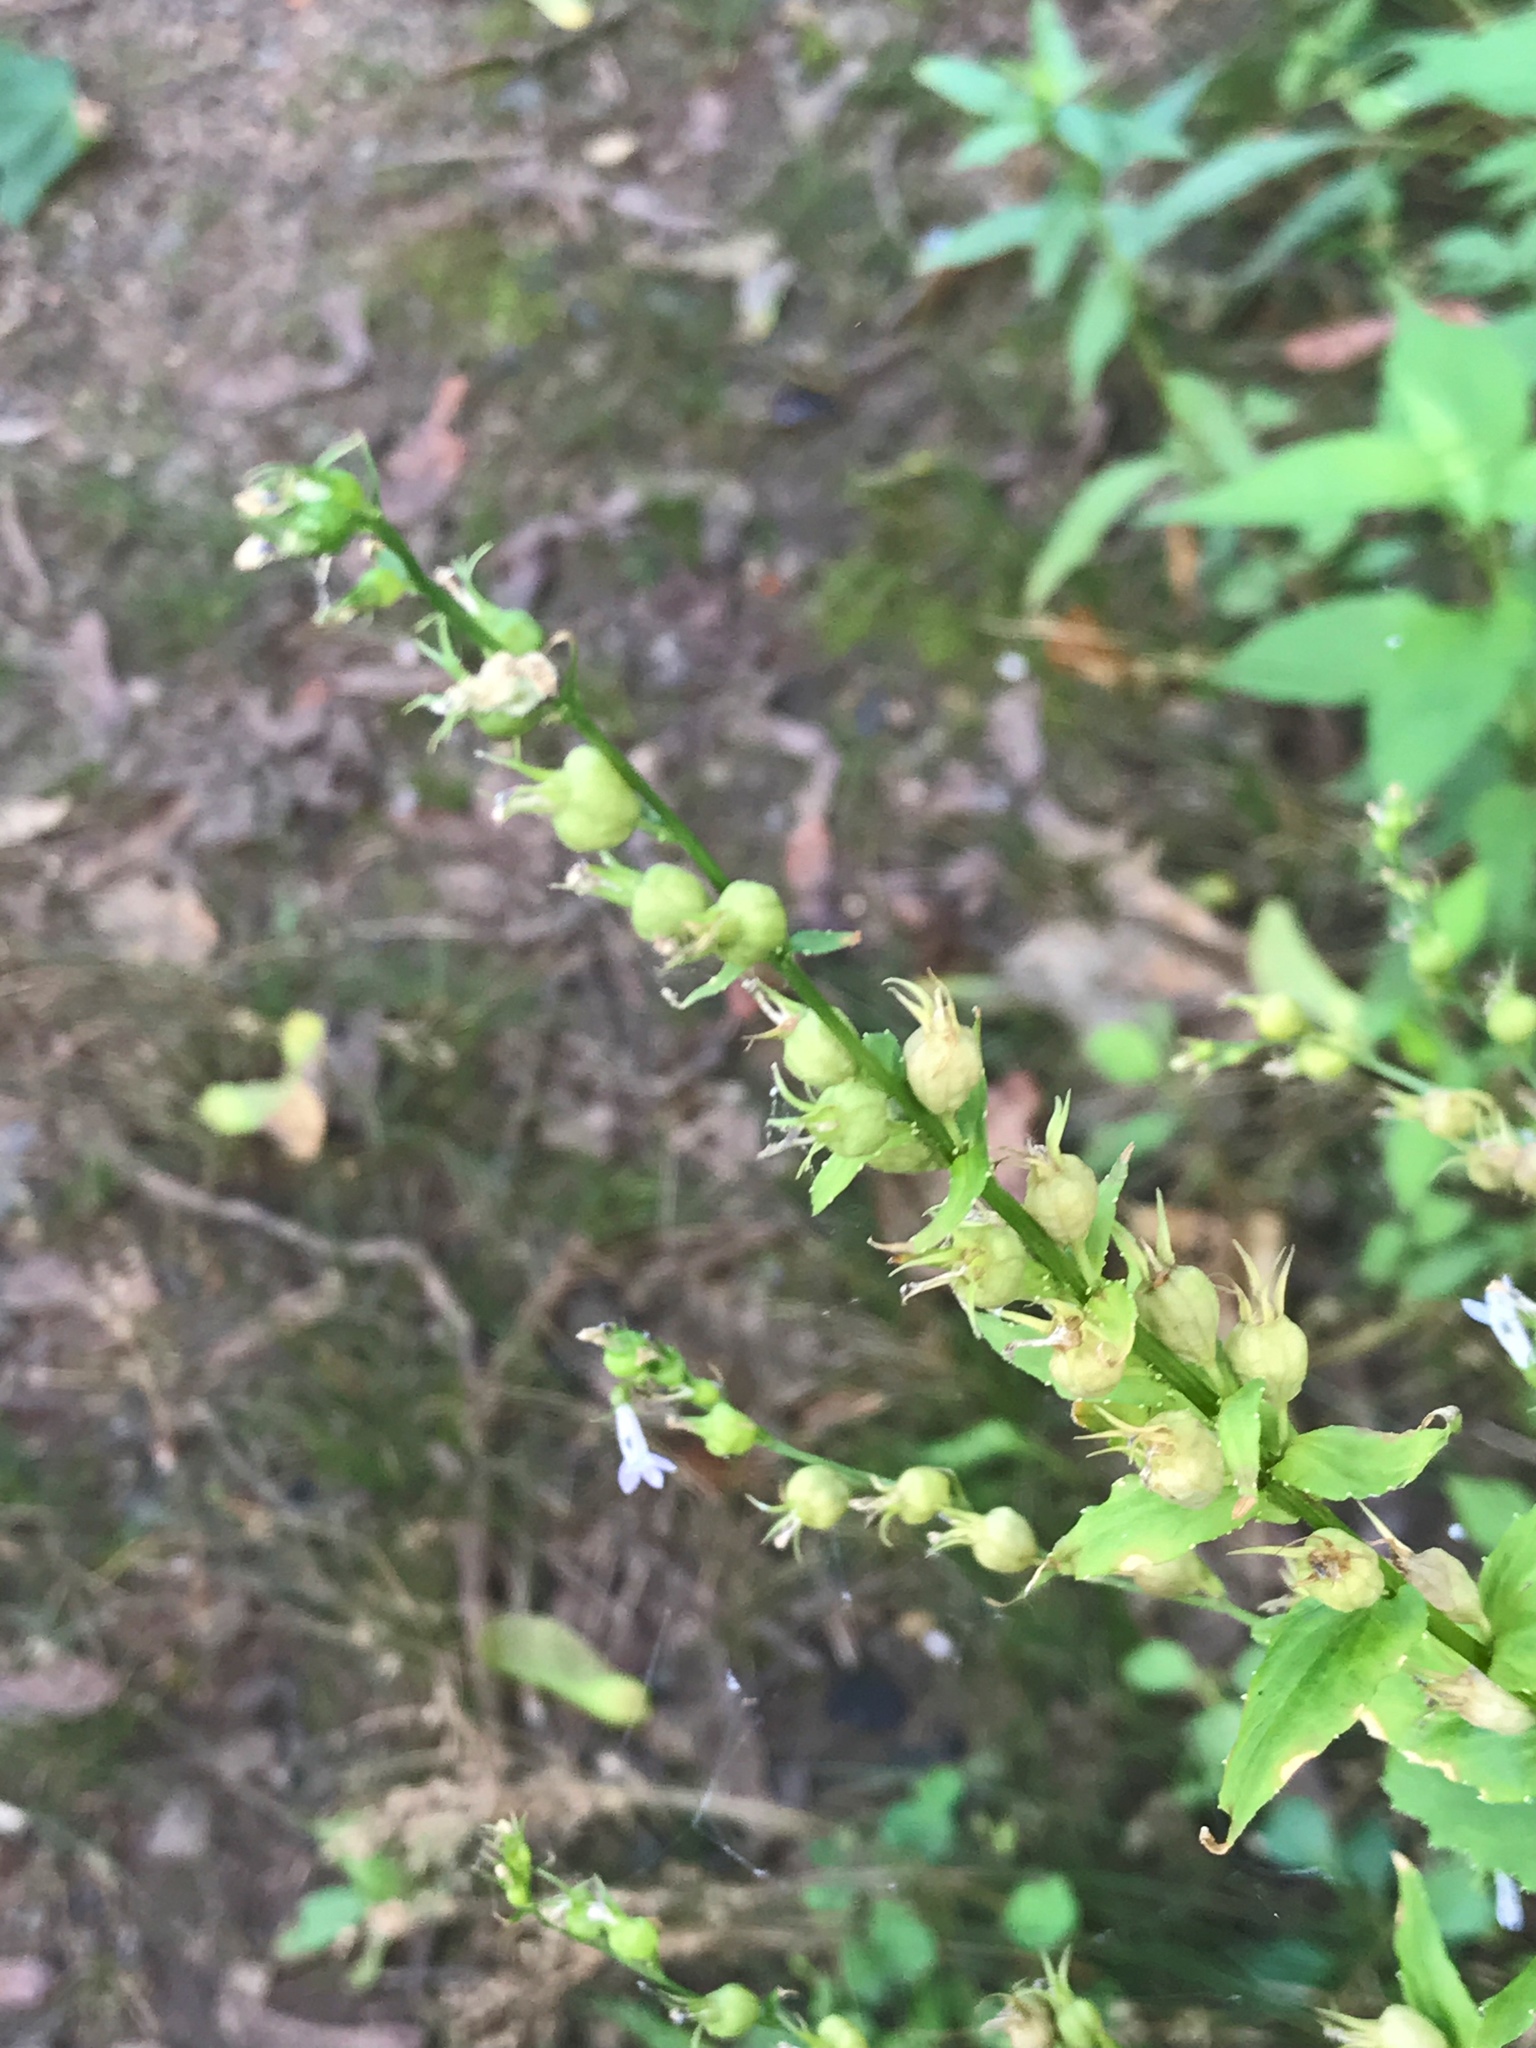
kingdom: Plantae
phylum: Tracheophyta
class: Magnoliopsida
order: Asterales
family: Campanulaceae
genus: Lobelia
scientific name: Lobelia inflata
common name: Indian tobacco
